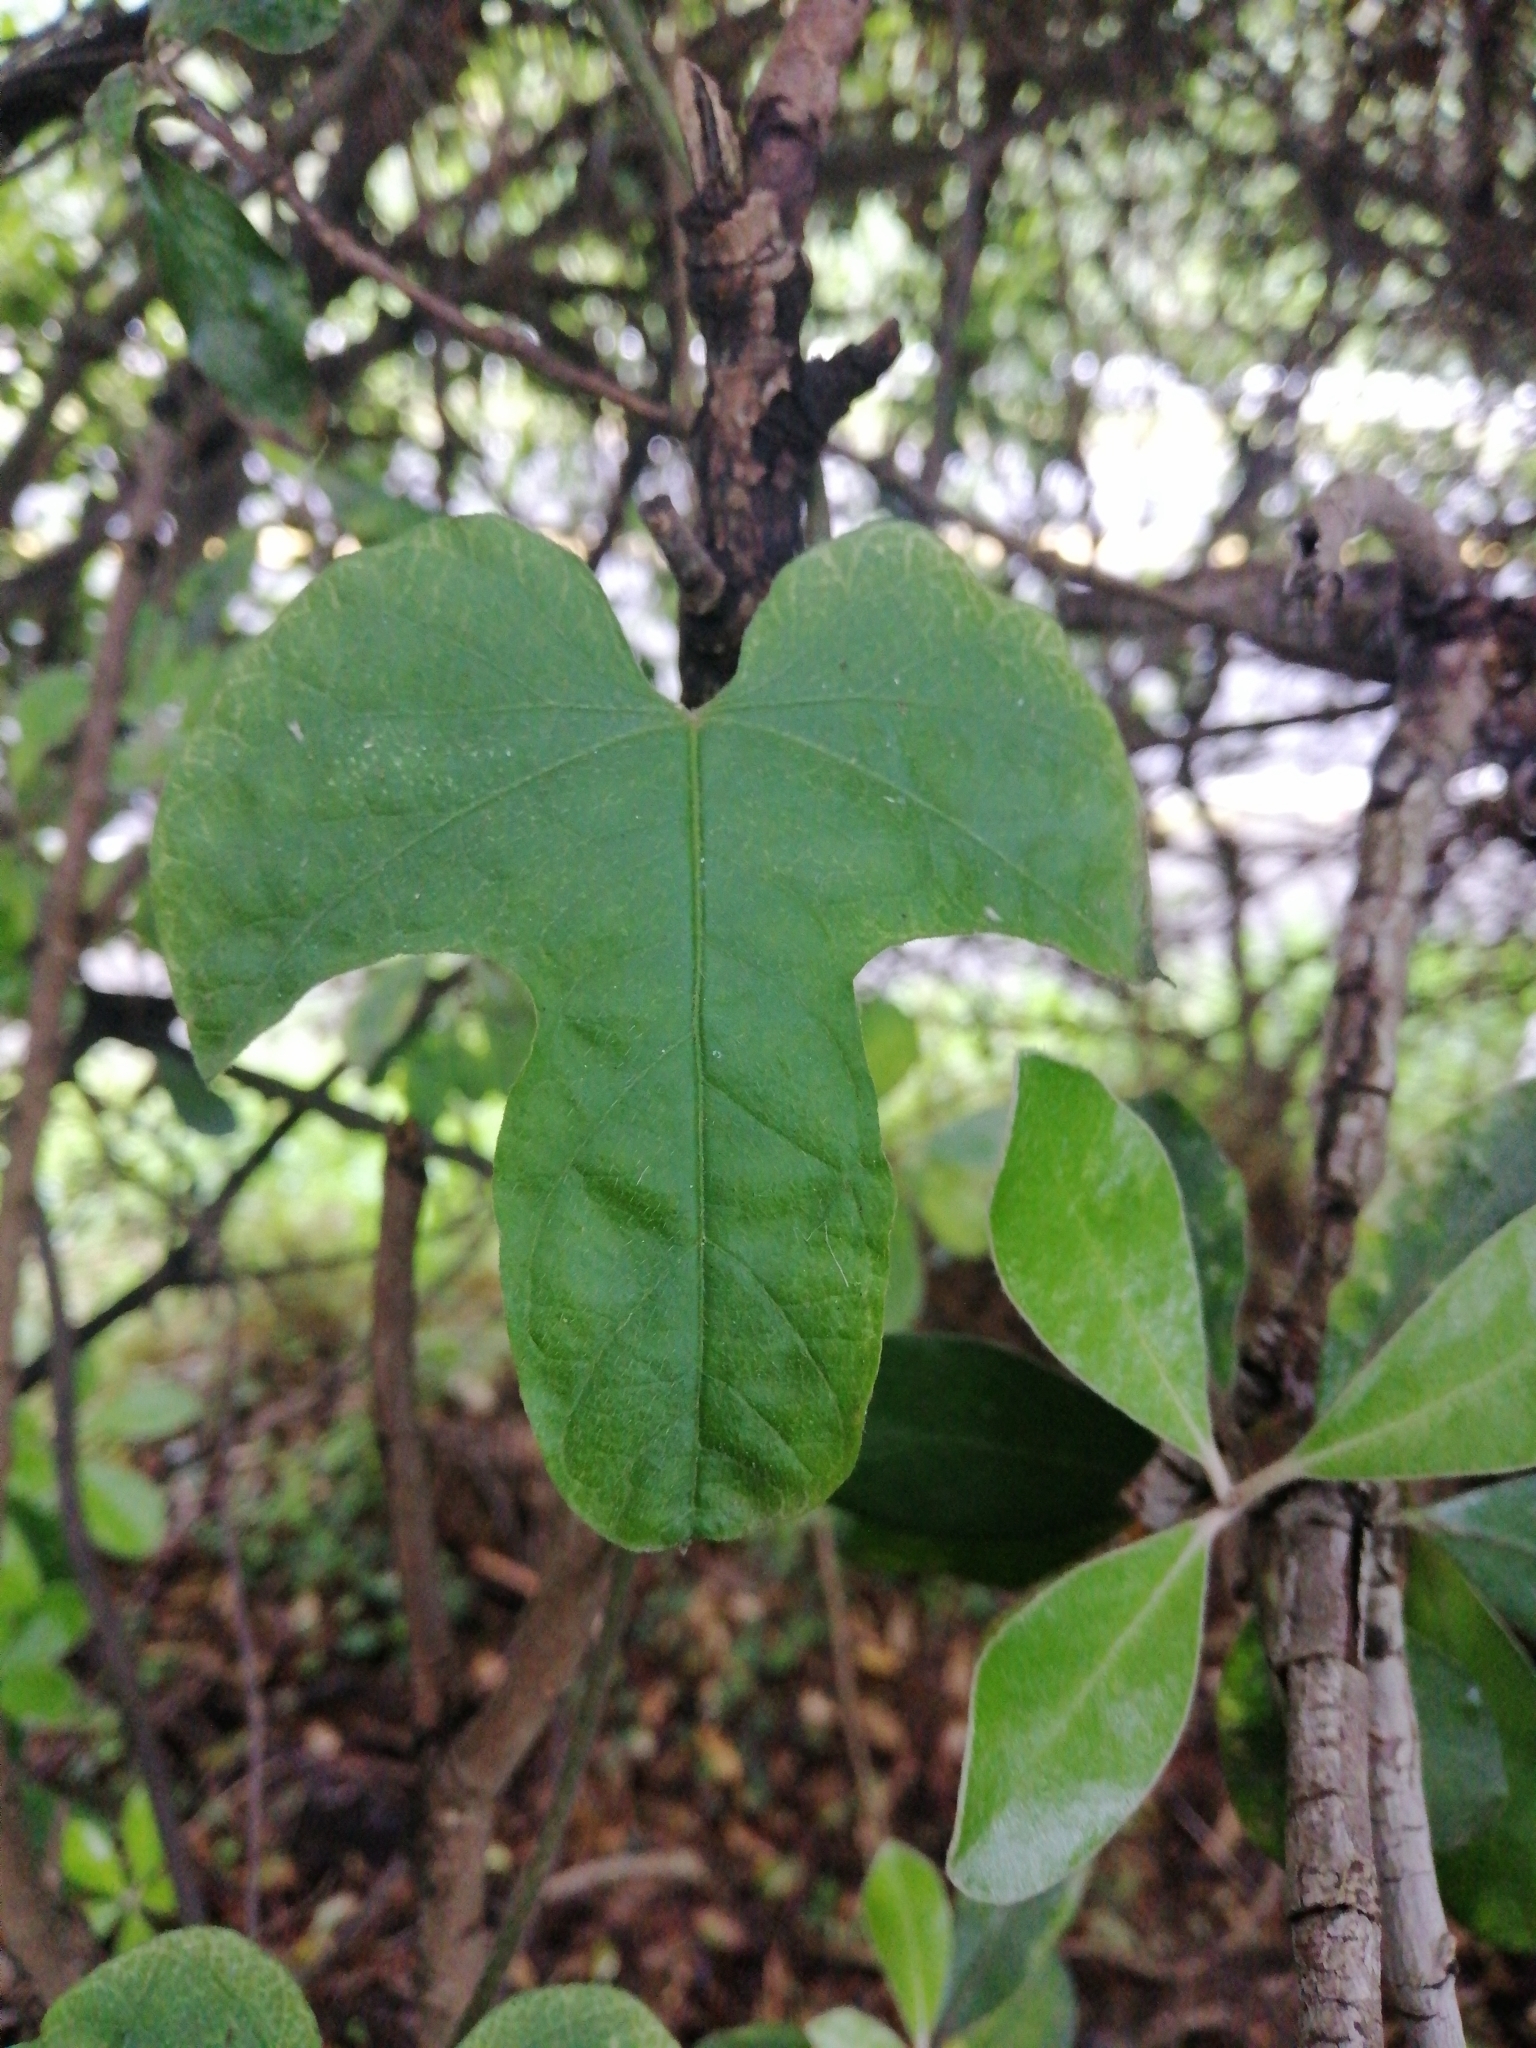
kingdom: Plantae
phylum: Tracheophyta
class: Magnoliopsida
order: Solanales
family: Convolvulaceae
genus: Ipomoea
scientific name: Ipomoea indica
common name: Blue dawnflower
